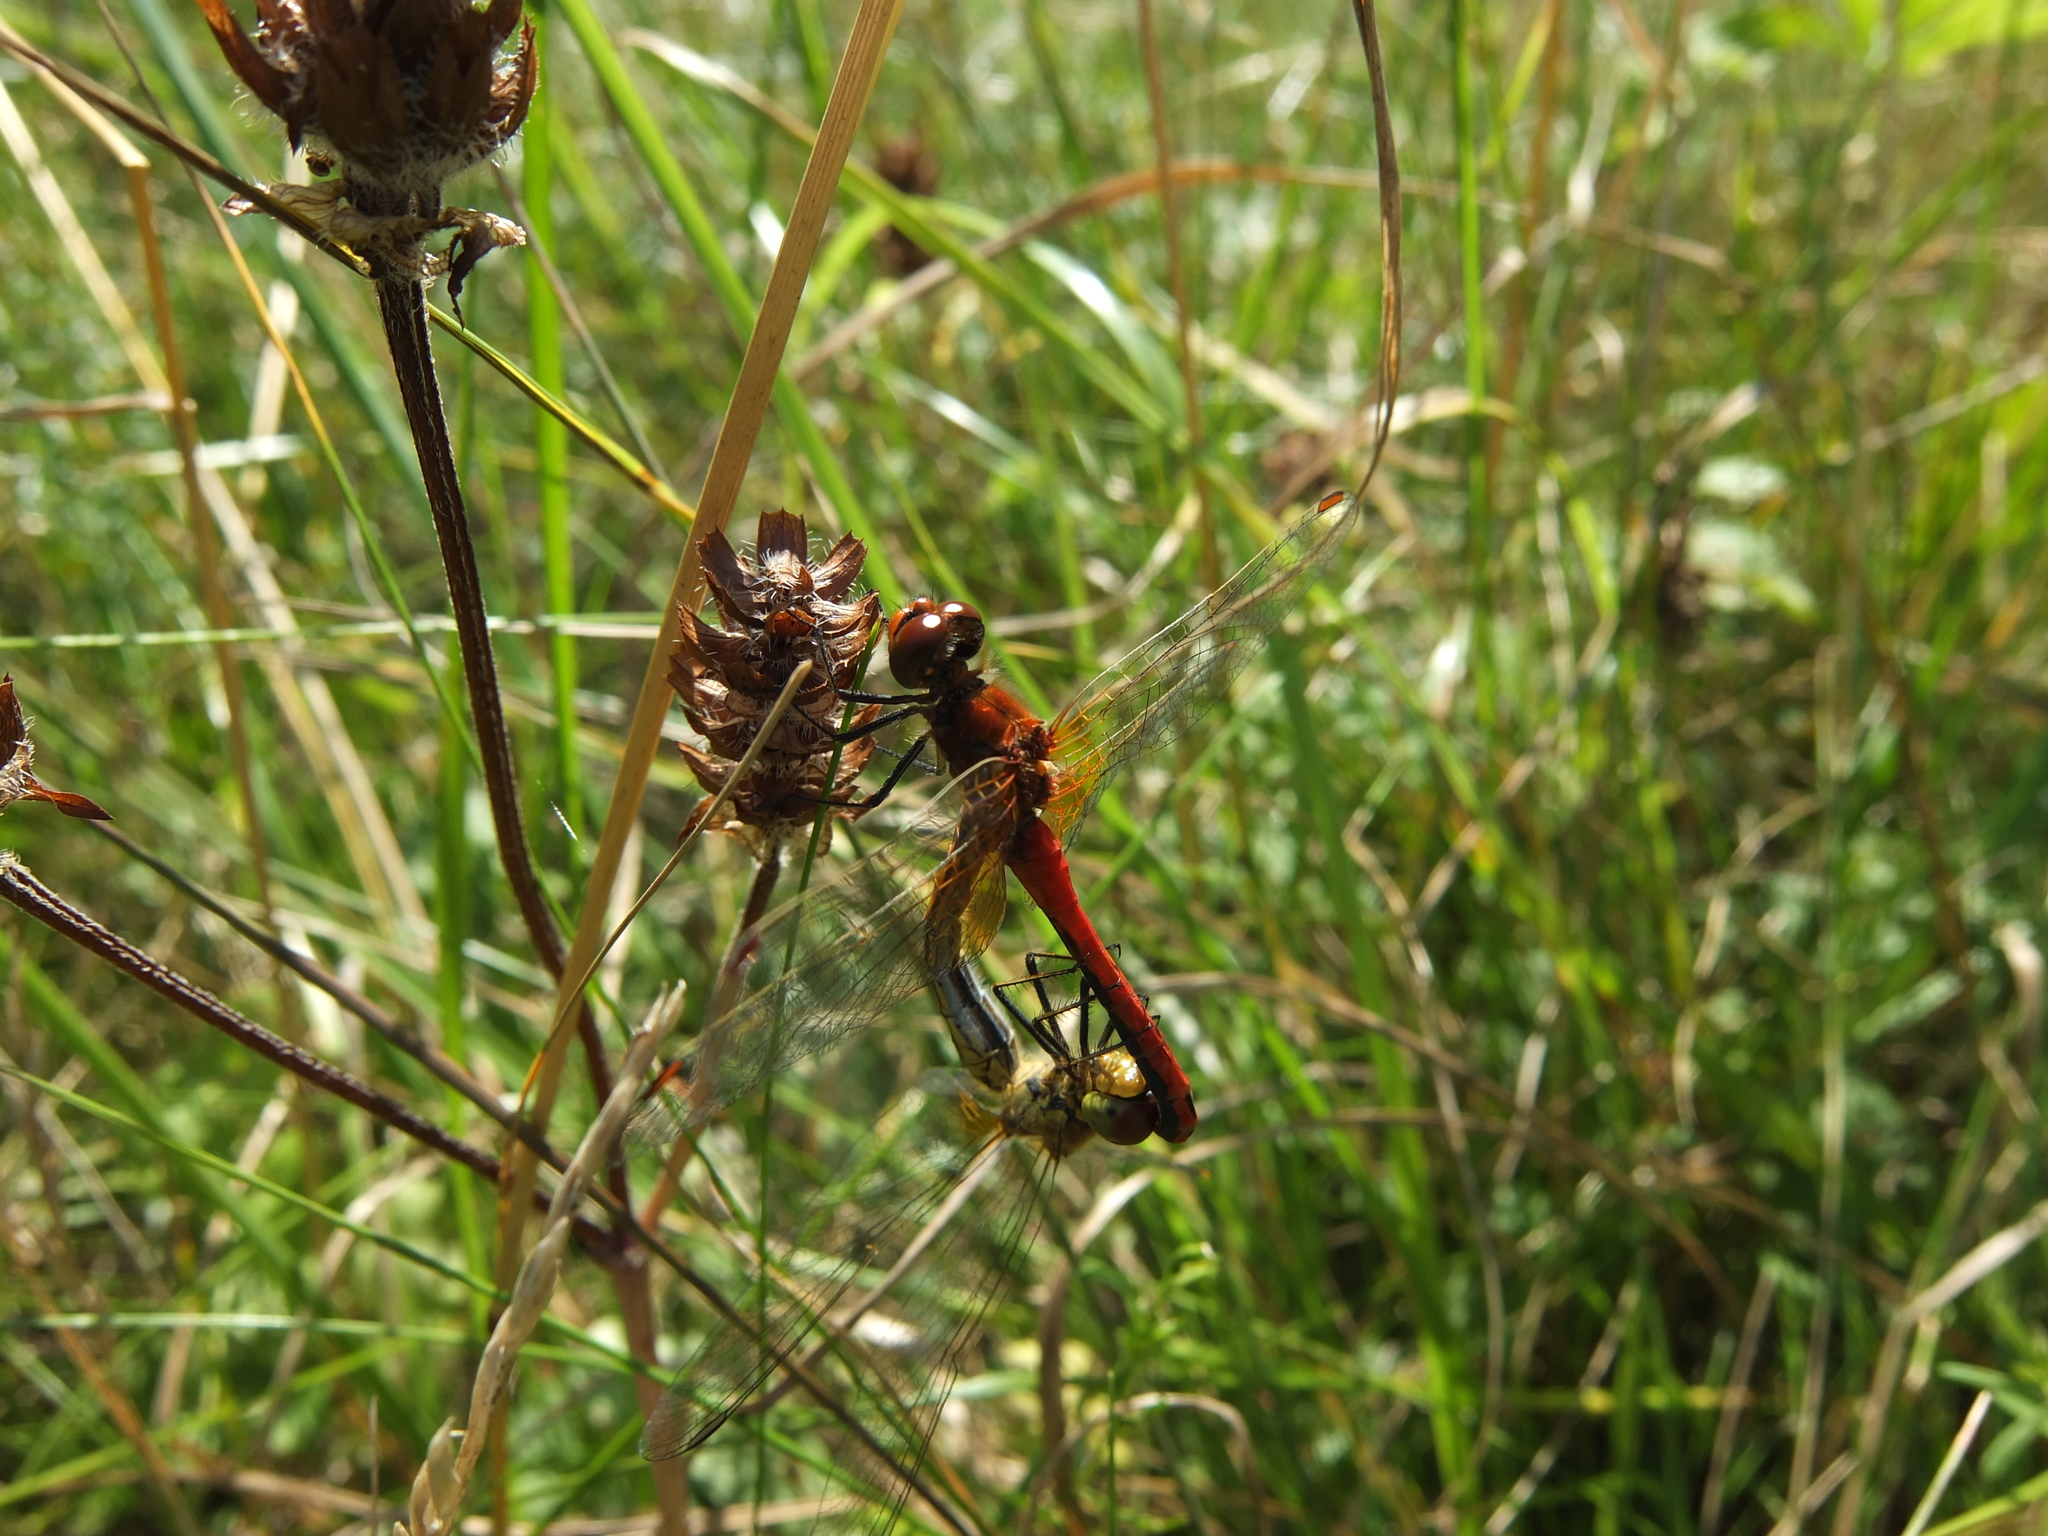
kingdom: Animalia
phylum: Arthropoda
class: Insecta
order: Odonata
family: Libellulidae
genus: Sympetrum
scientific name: Sympetrum flaveolum
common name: Yellow-winged darter
